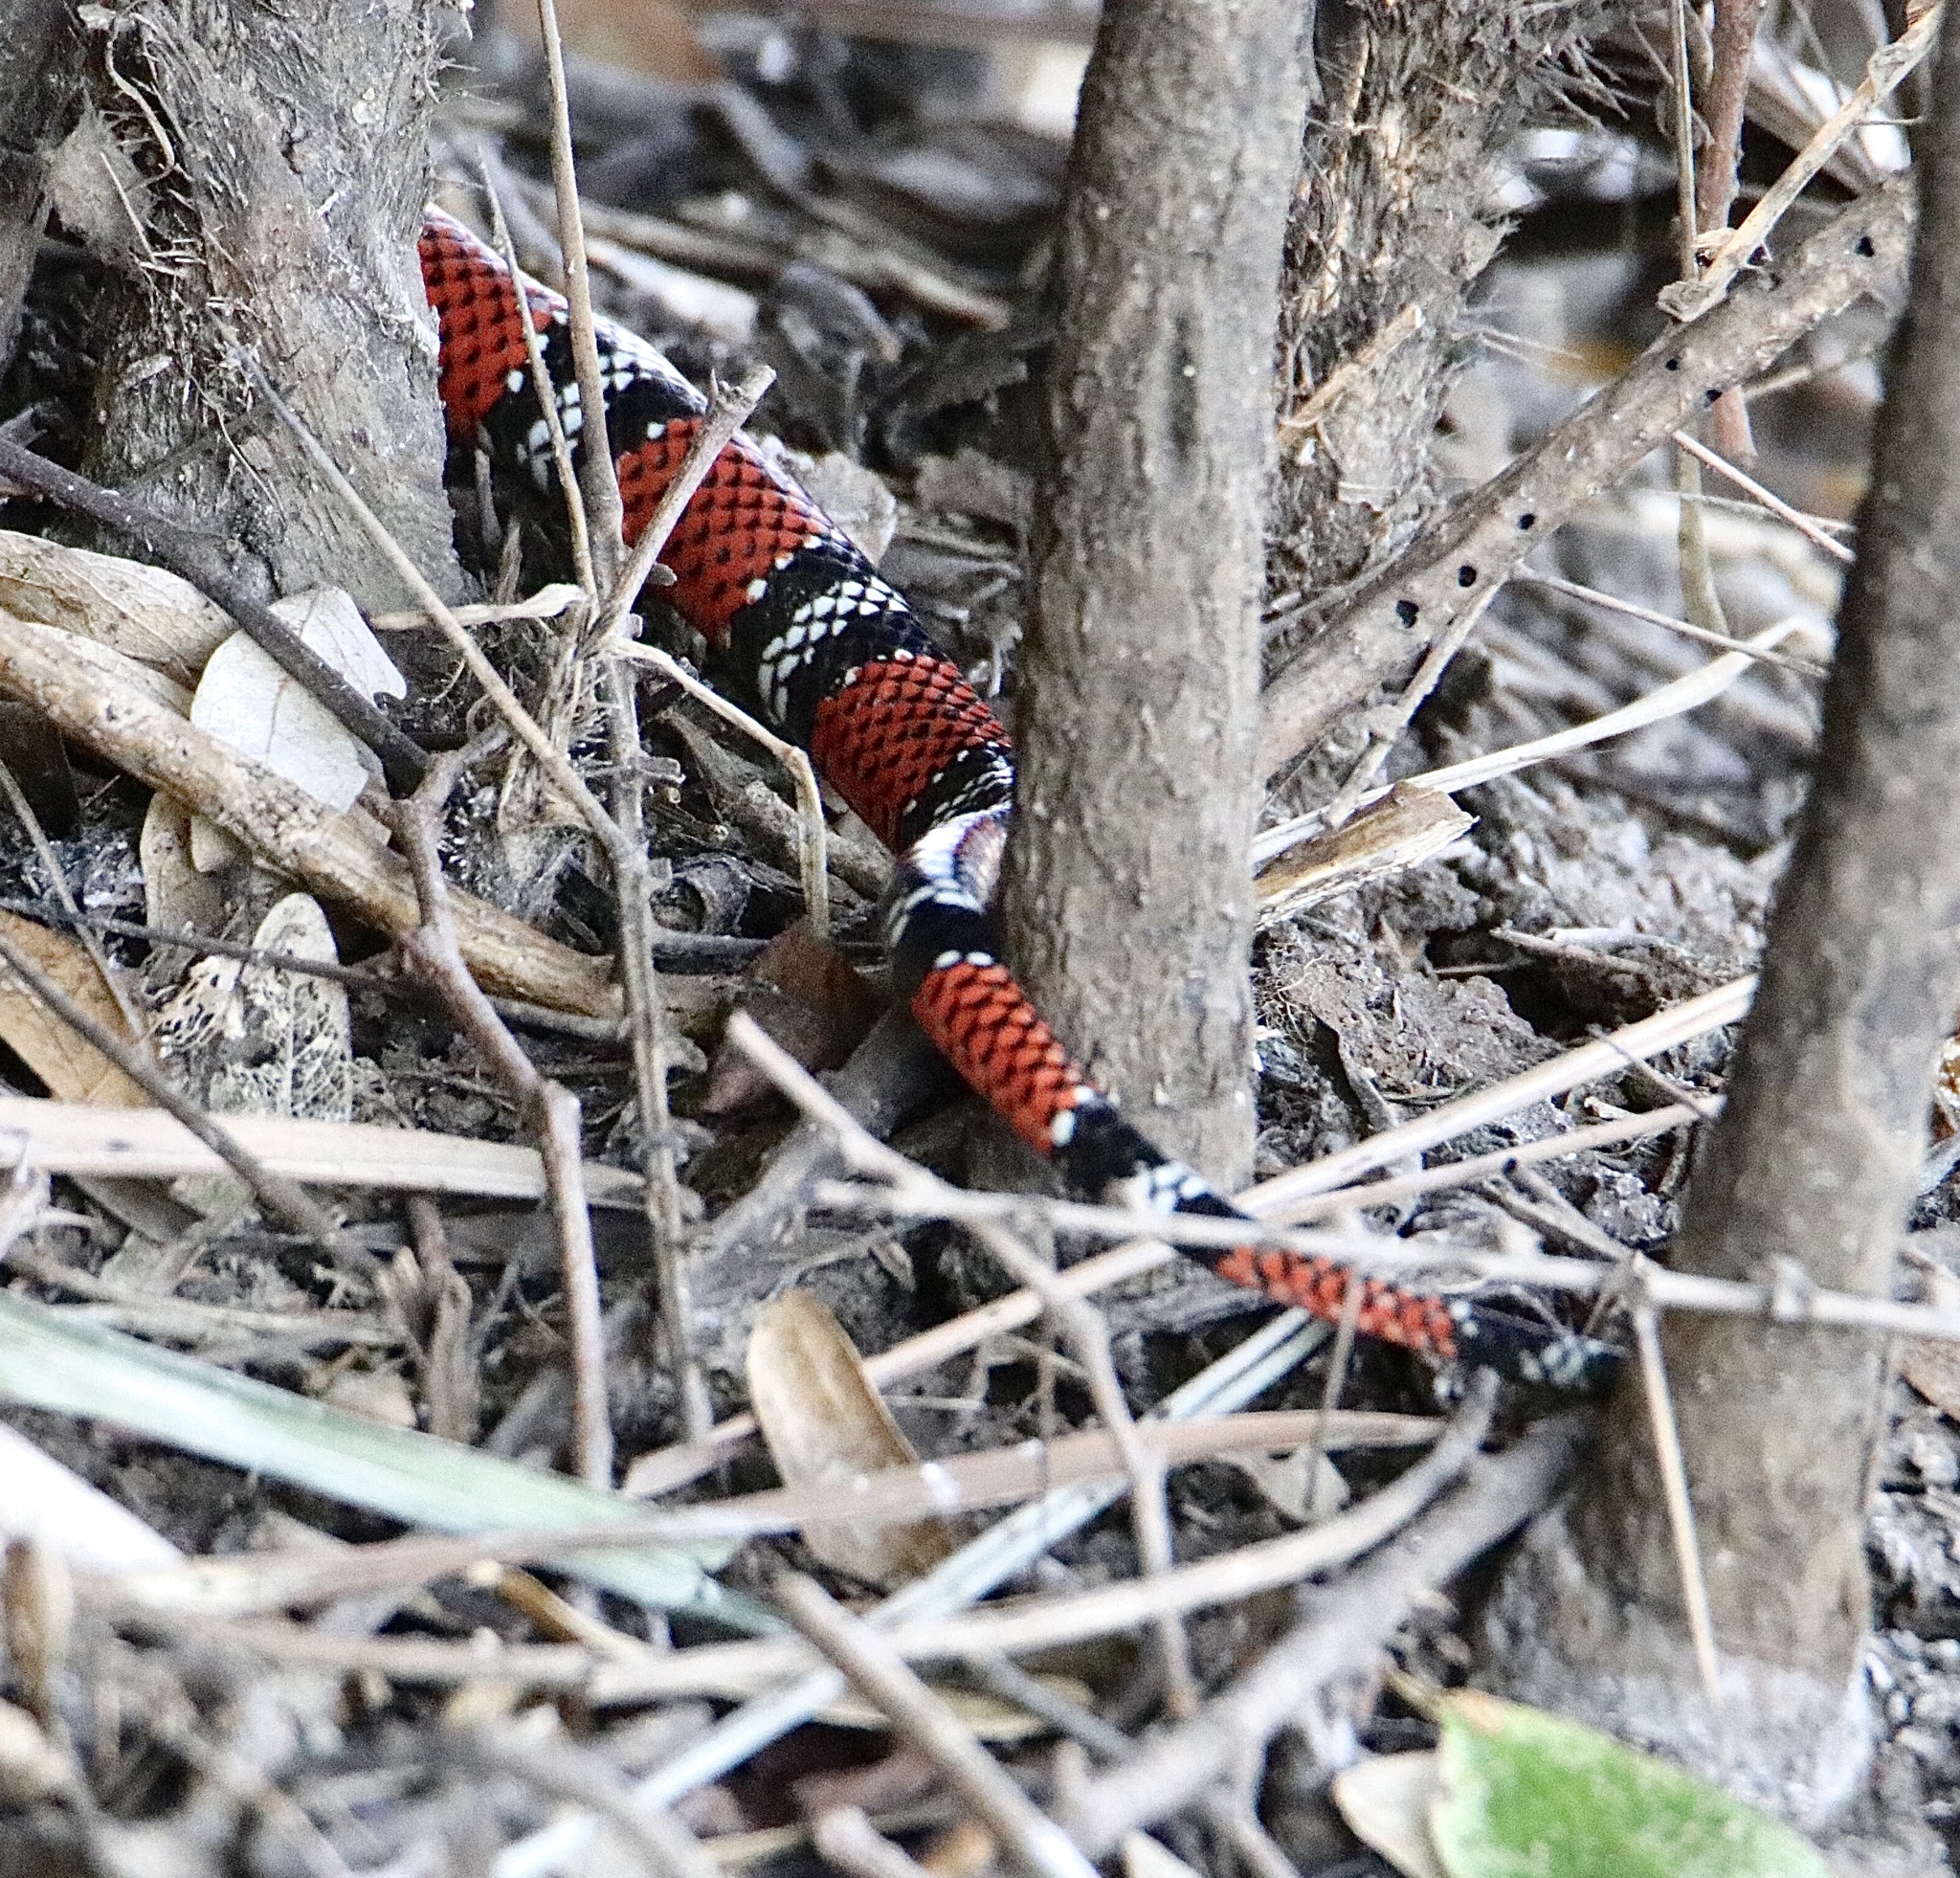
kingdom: Animalia
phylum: Chordata
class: Squamata
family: Colubridae
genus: Erythrolamprus
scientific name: Erythrolamprus bizona
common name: Double-banded coral snake mimic
